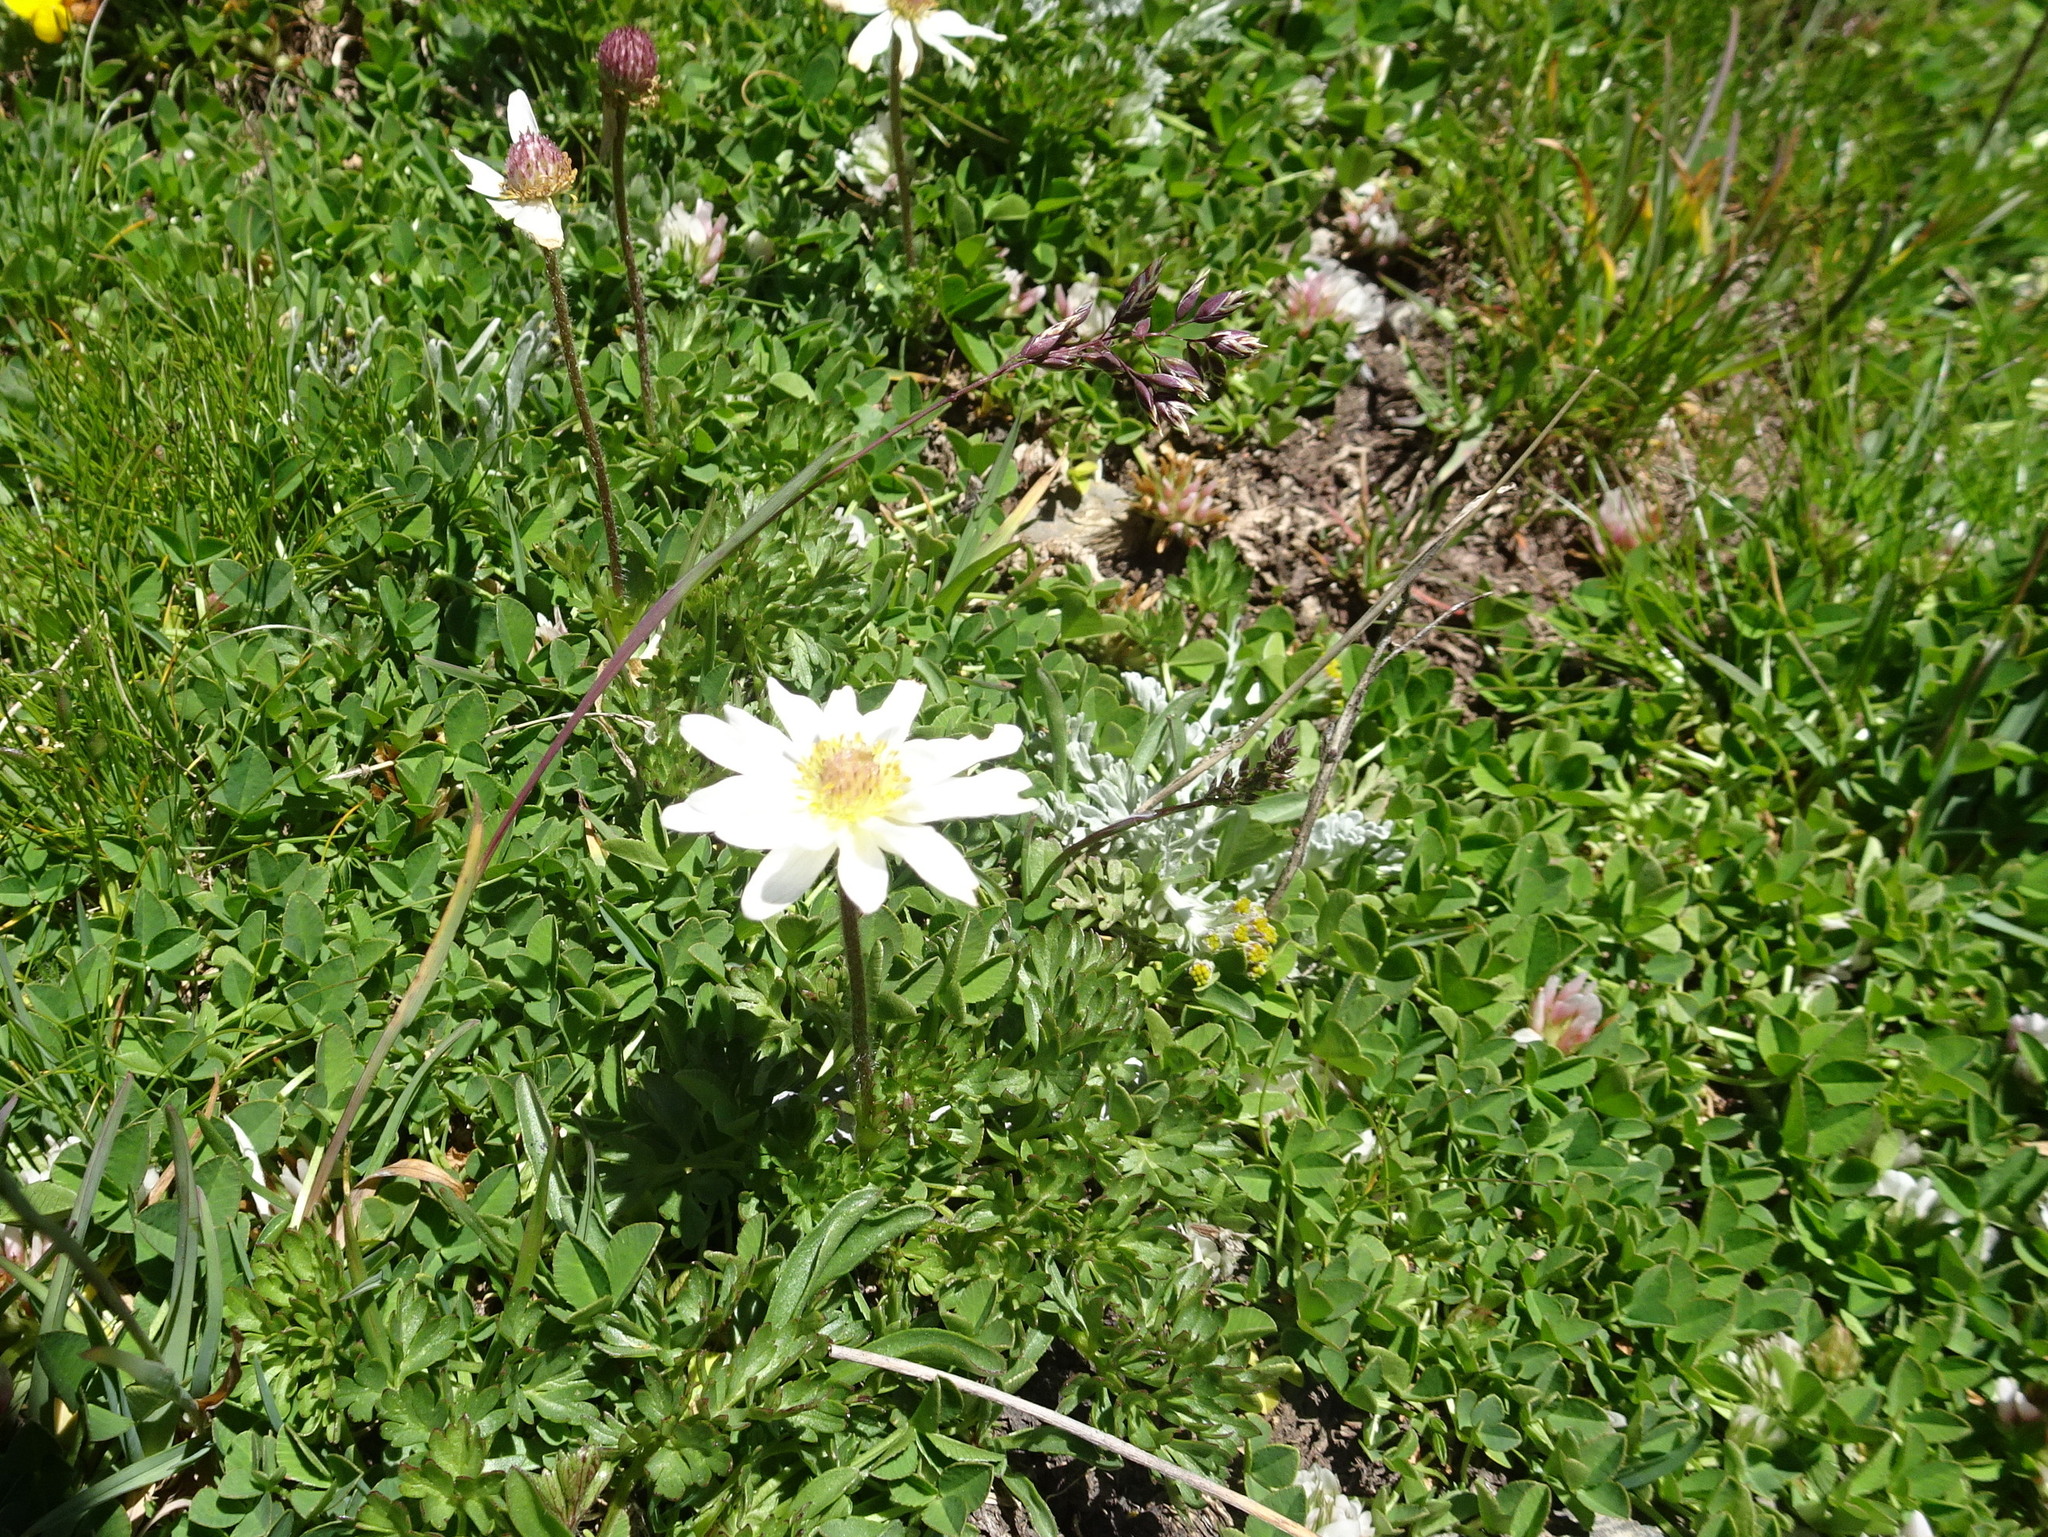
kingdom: Plantae
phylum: Tracheophyta
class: Magnoliopsida
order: Ranunculales
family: Ranunculaceae
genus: Pulsatilla
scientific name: Pulsatilla alpina
